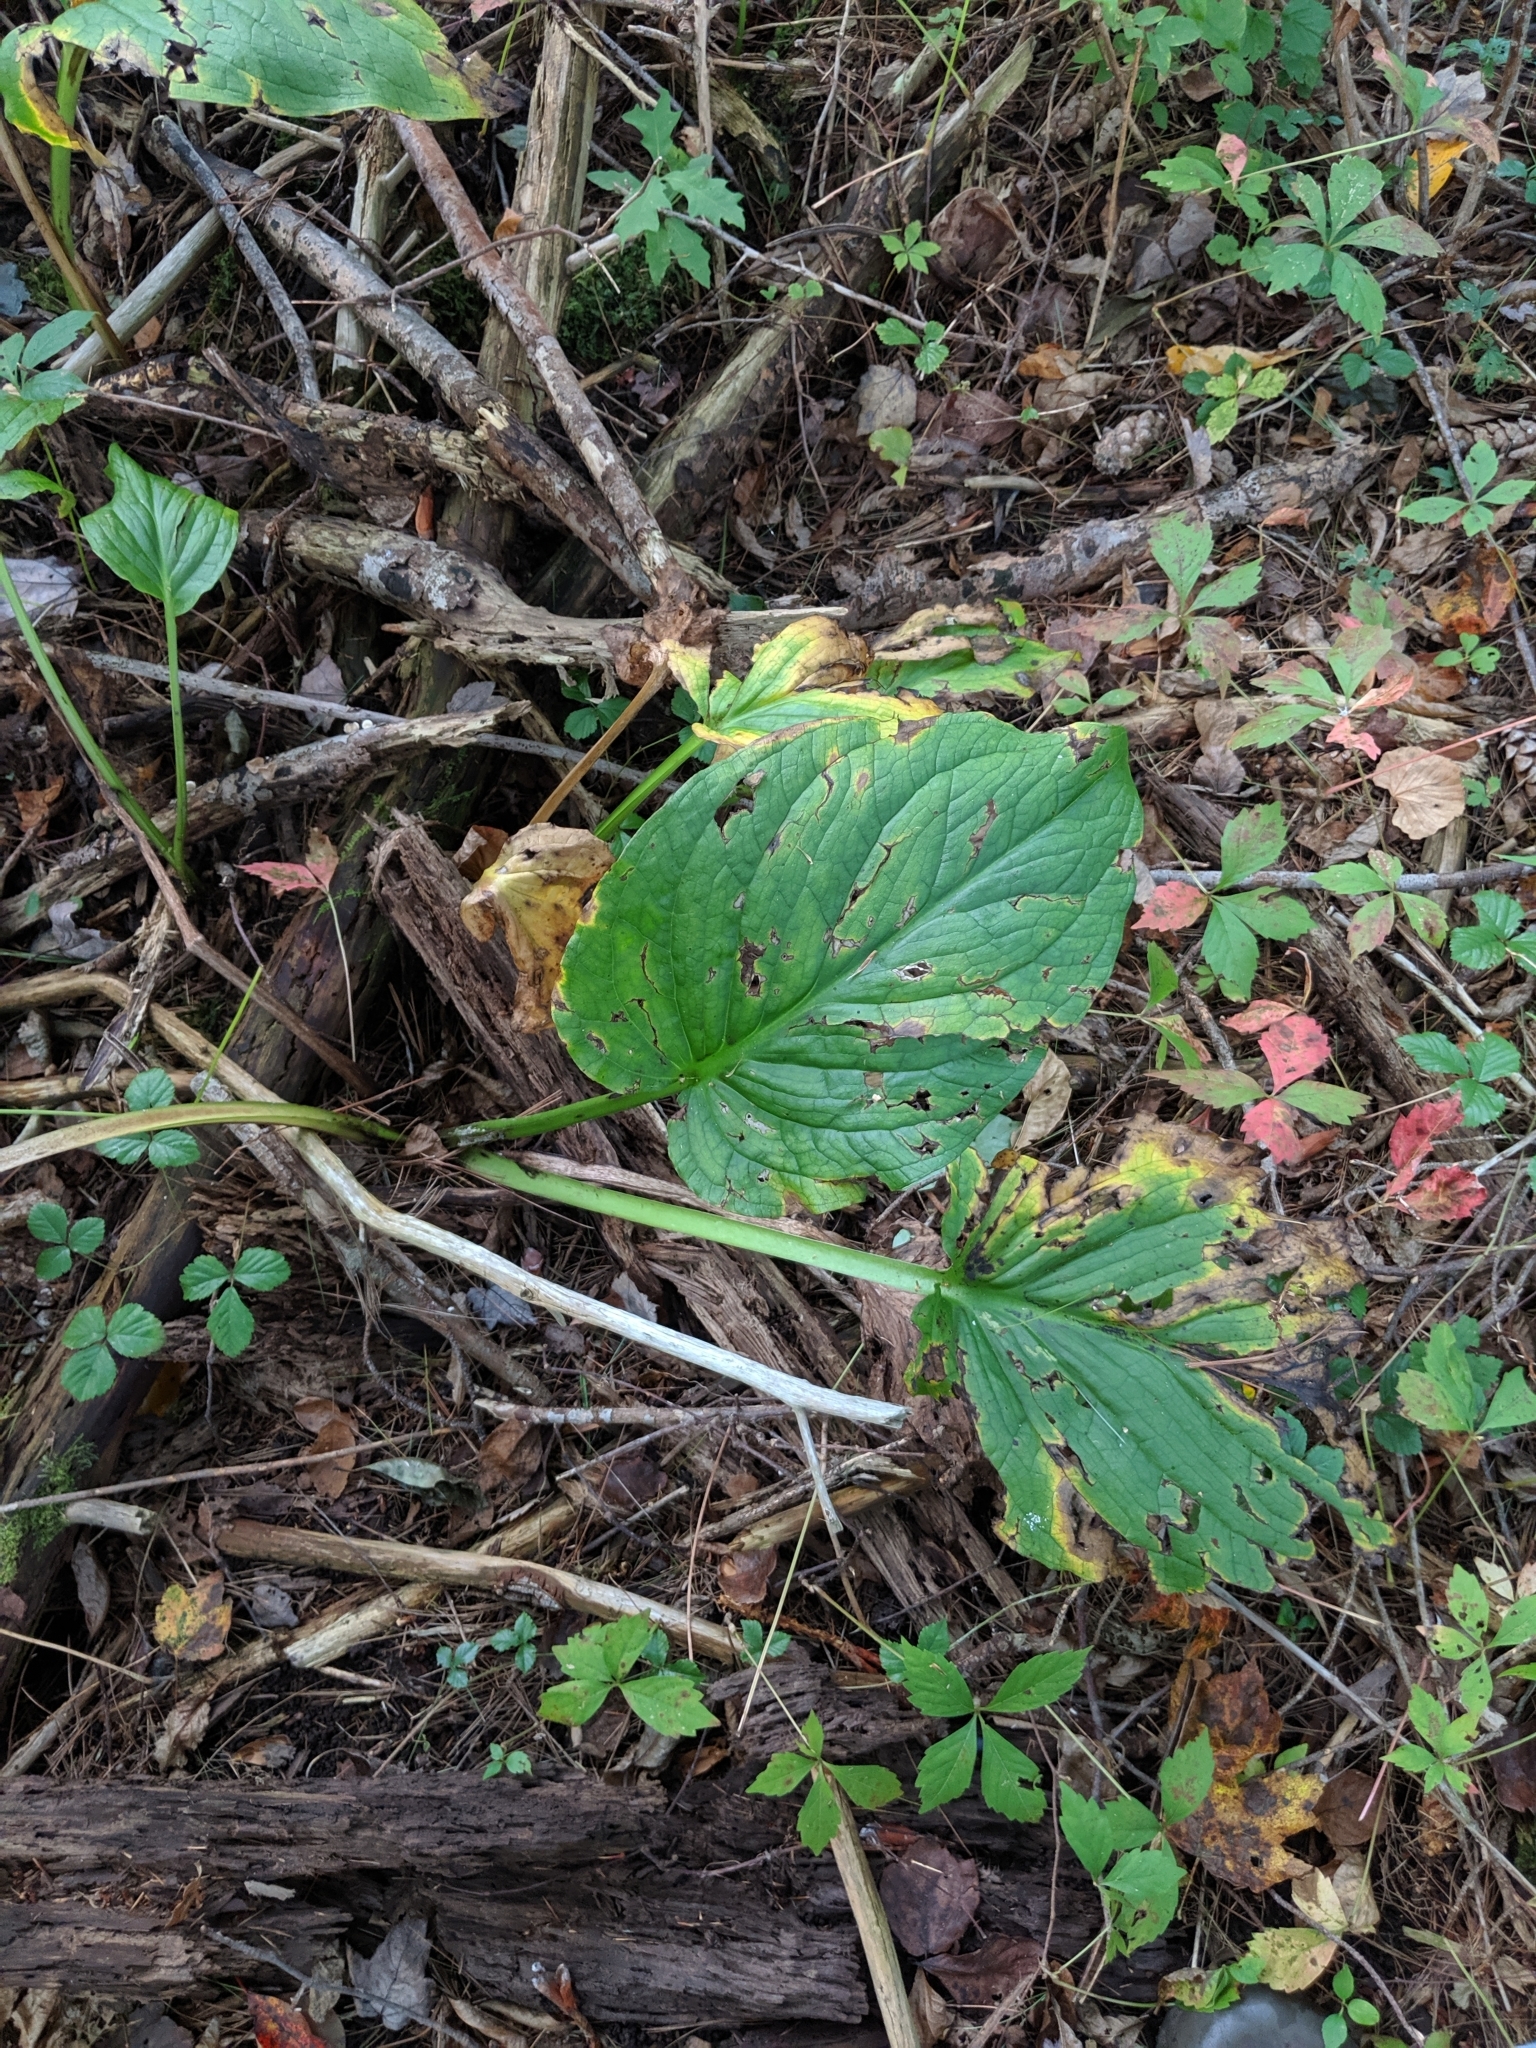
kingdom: Plantae
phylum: Tracheophyta
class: Liliopsida
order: Alismatales
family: Araceae
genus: Symplocarpus
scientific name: Symplocarpus foetidus
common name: Eastern skunk cabbage
